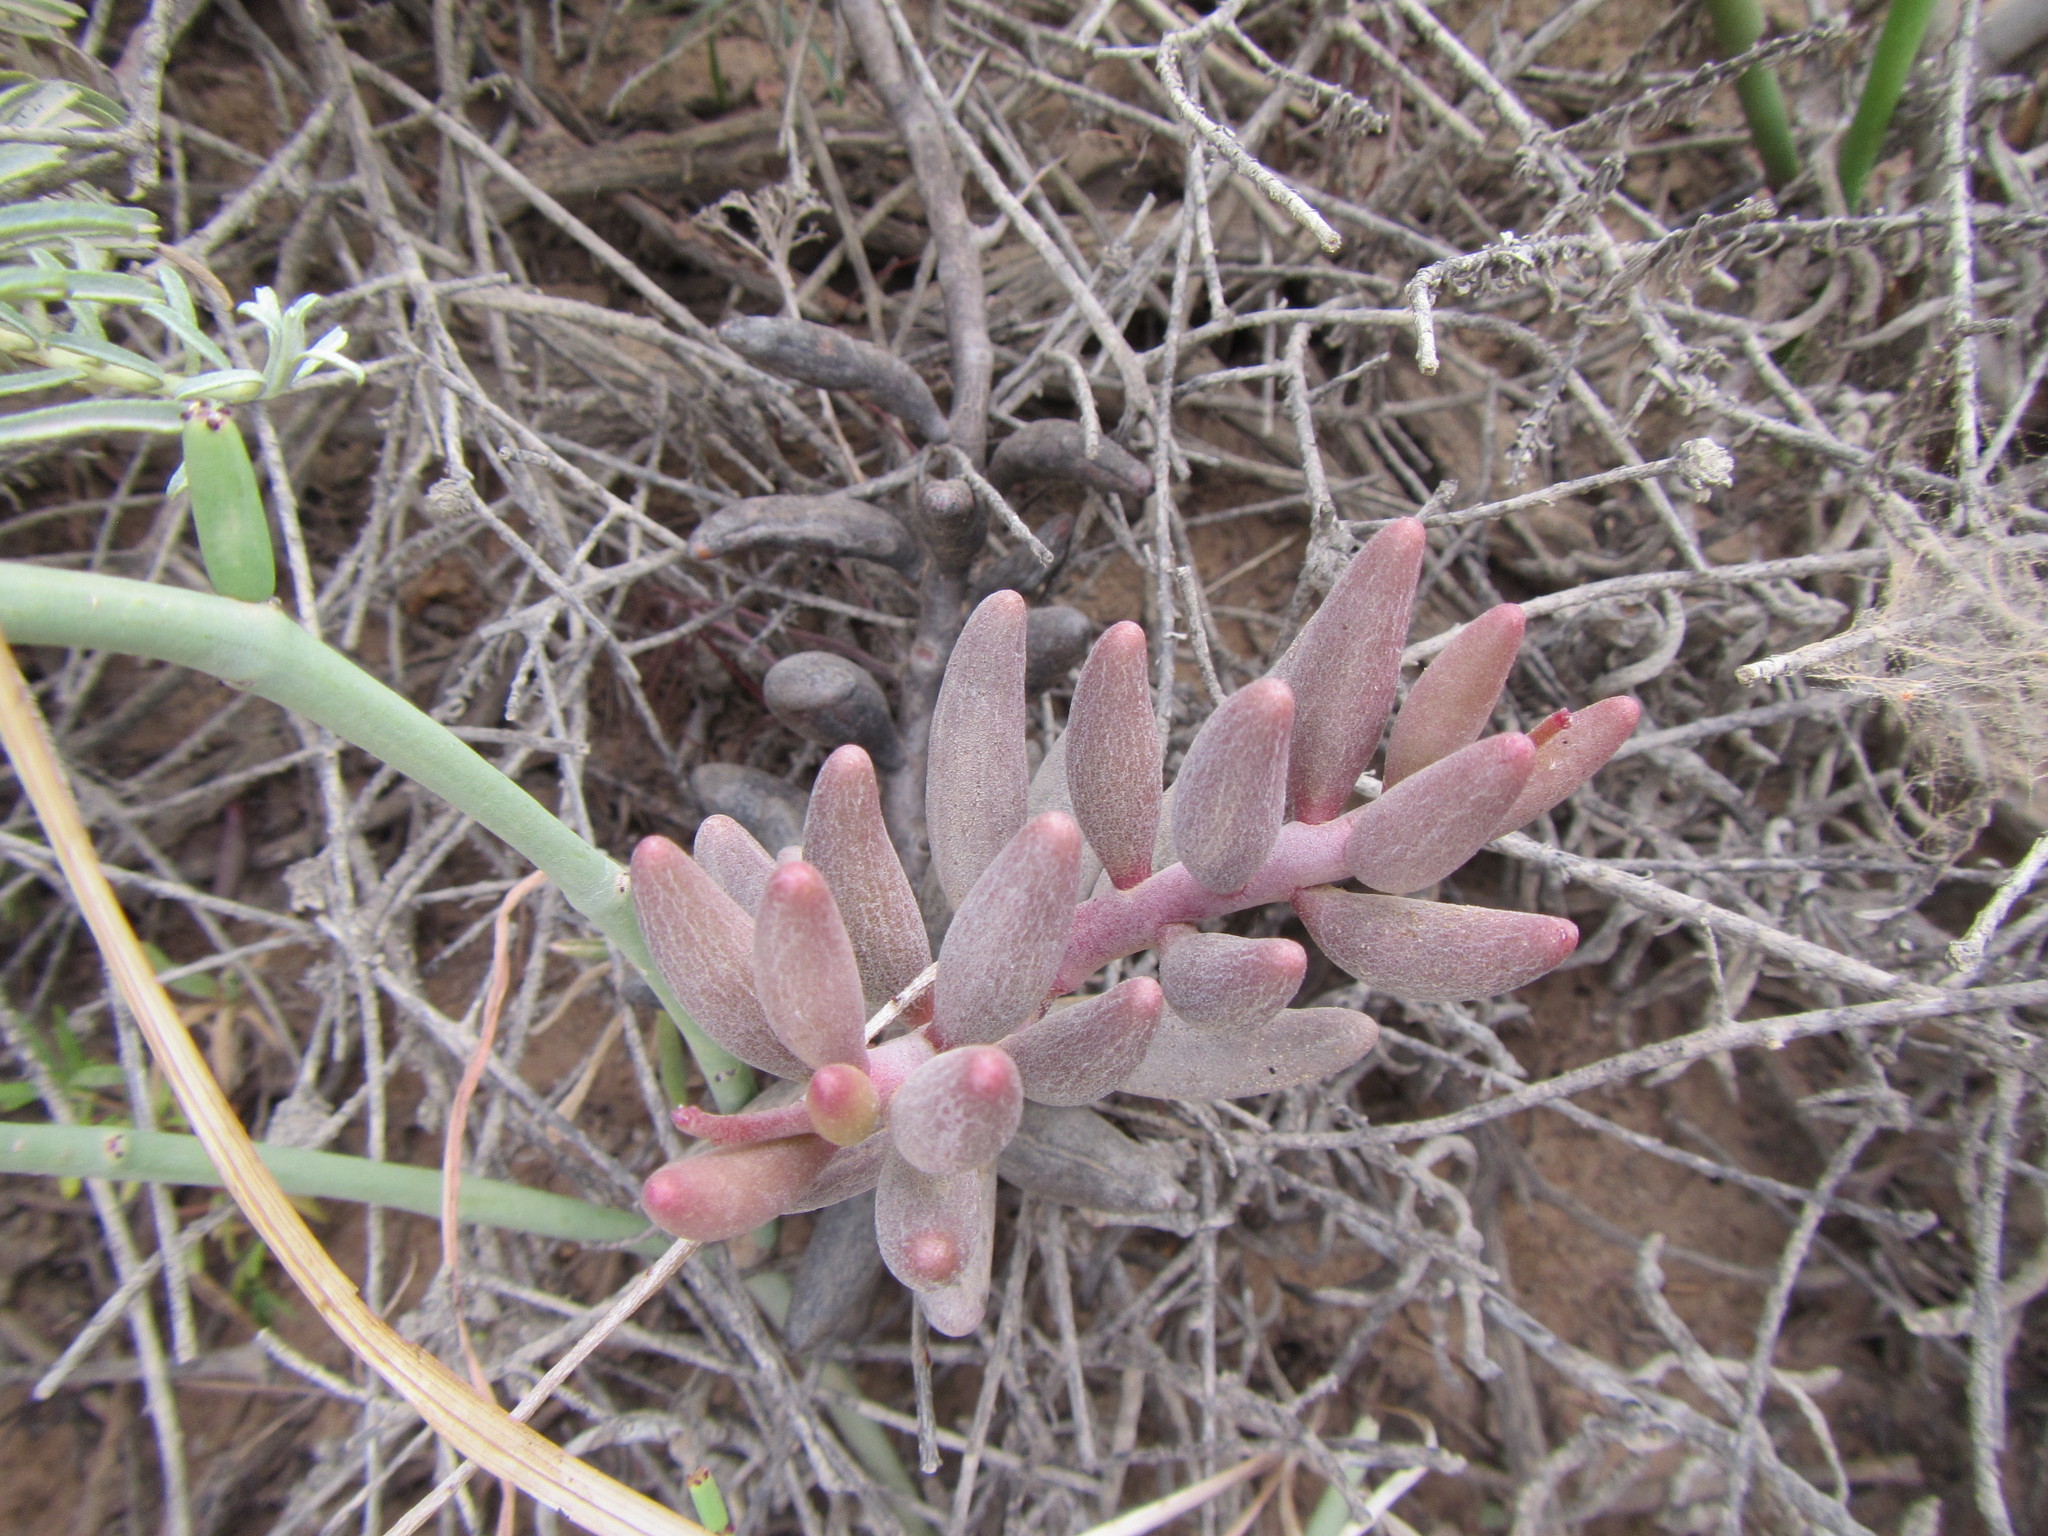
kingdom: Plantae
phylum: Tracheophyta
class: Magnoliopsida
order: Saxifragales
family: Crassulaceae
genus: Adromischus
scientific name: Adromischus filicaulis
